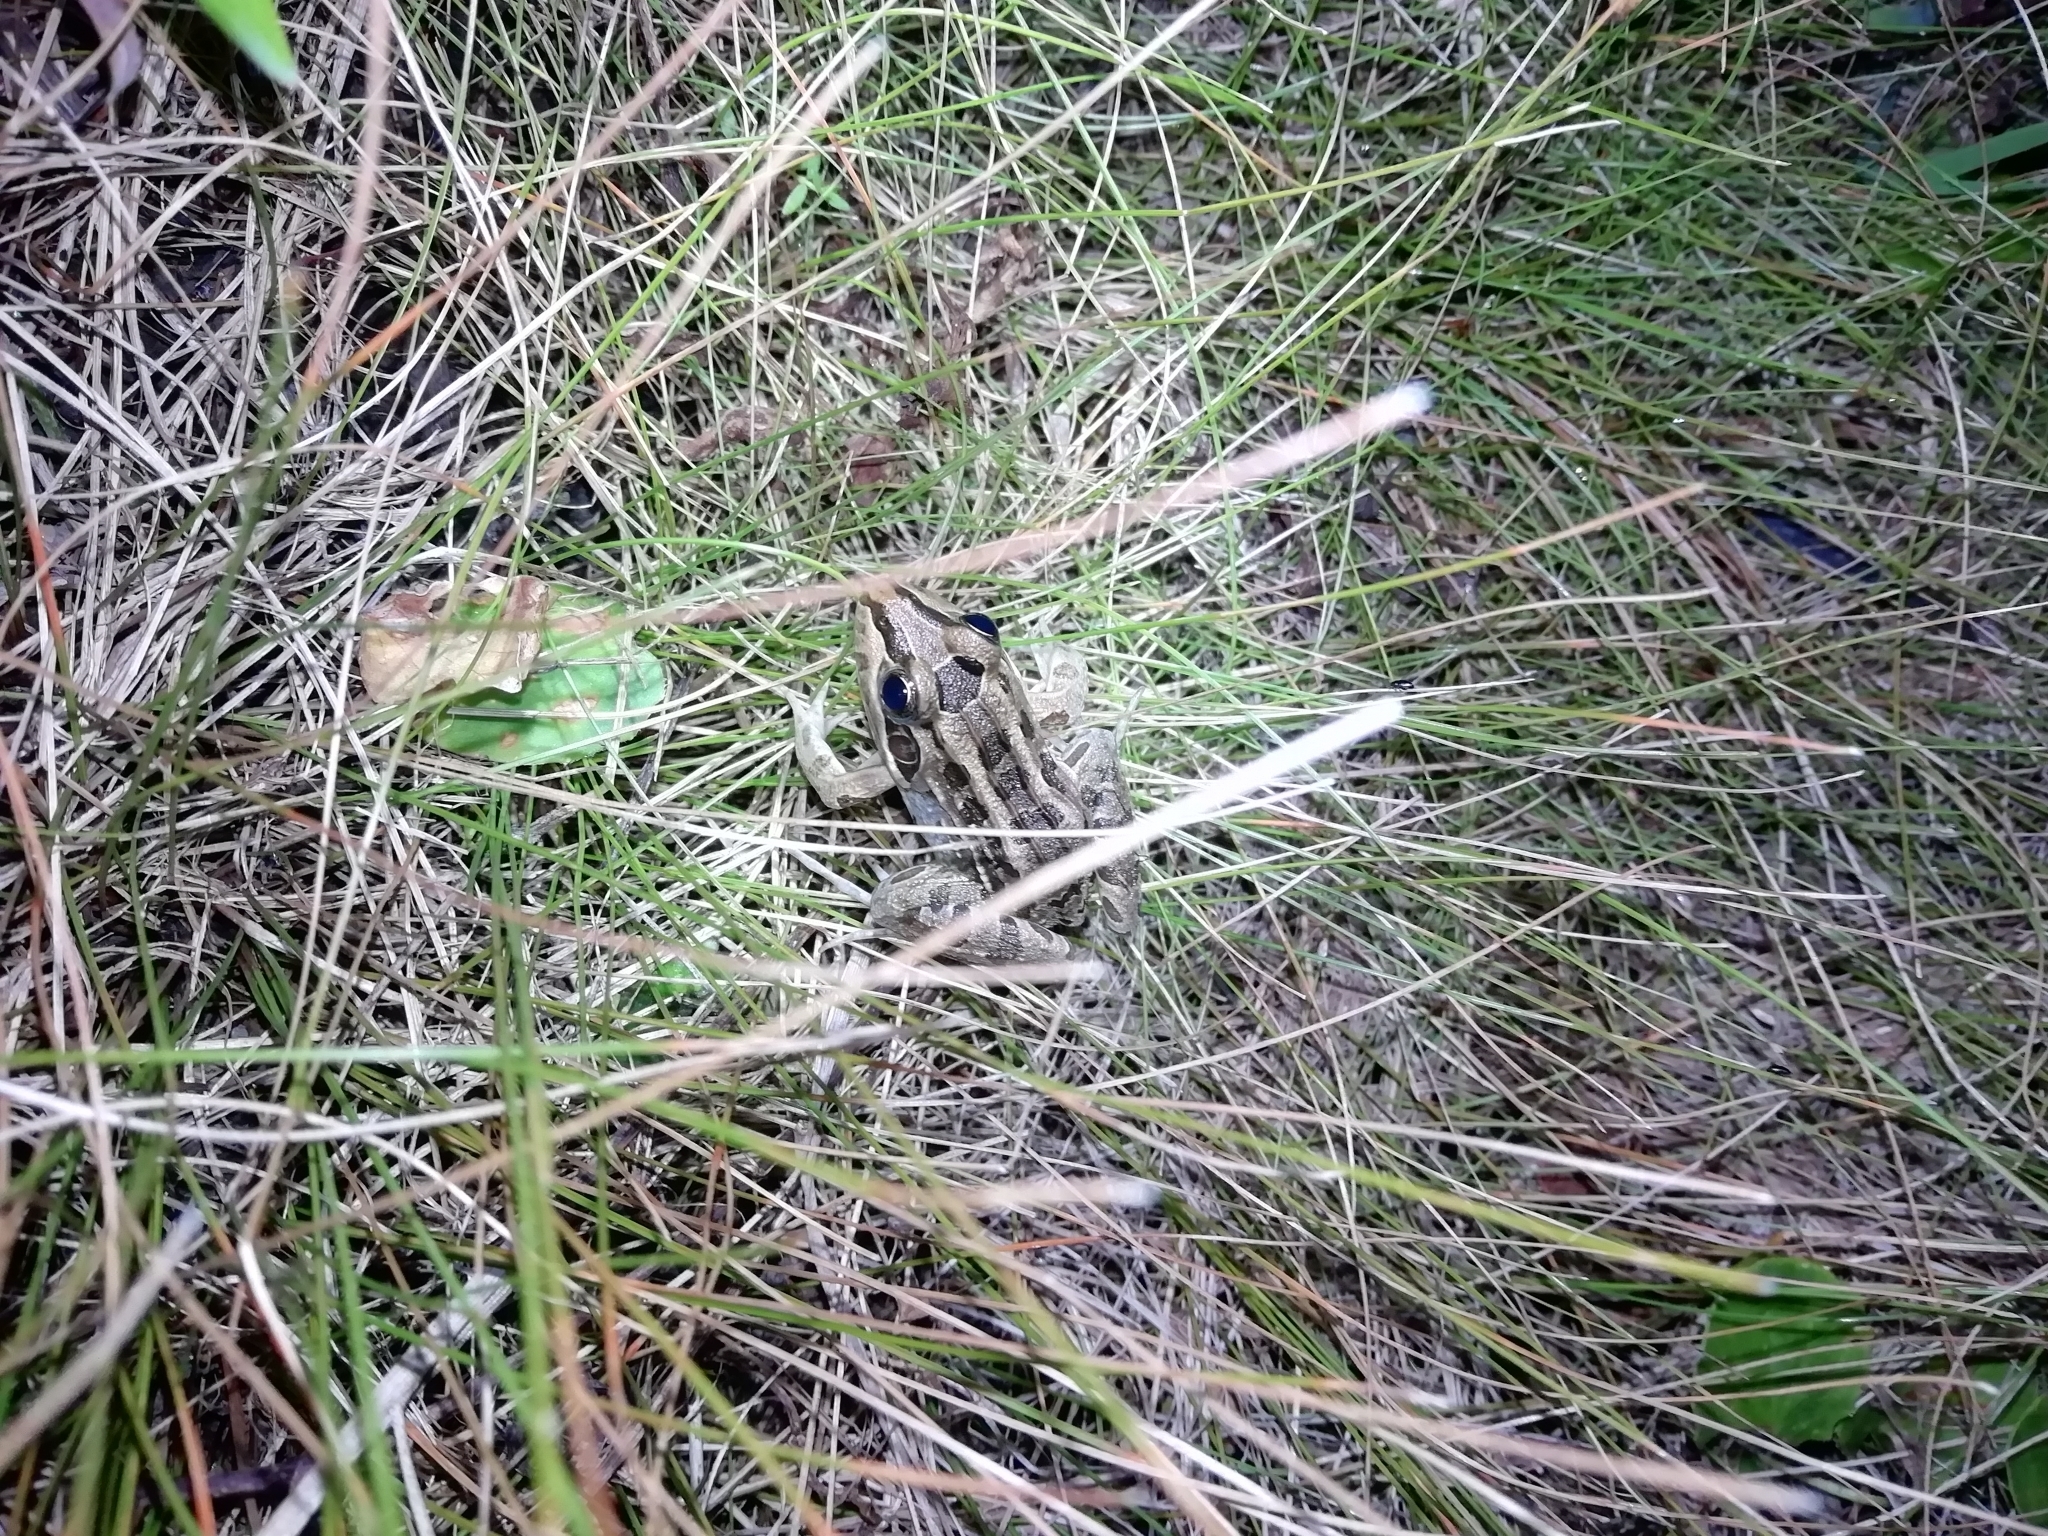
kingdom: Animalia
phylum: Chordata
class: Amphibia
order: Anura
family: Leptodactylidae
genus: Leptodactylus
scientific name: Leptodactylus luctator
